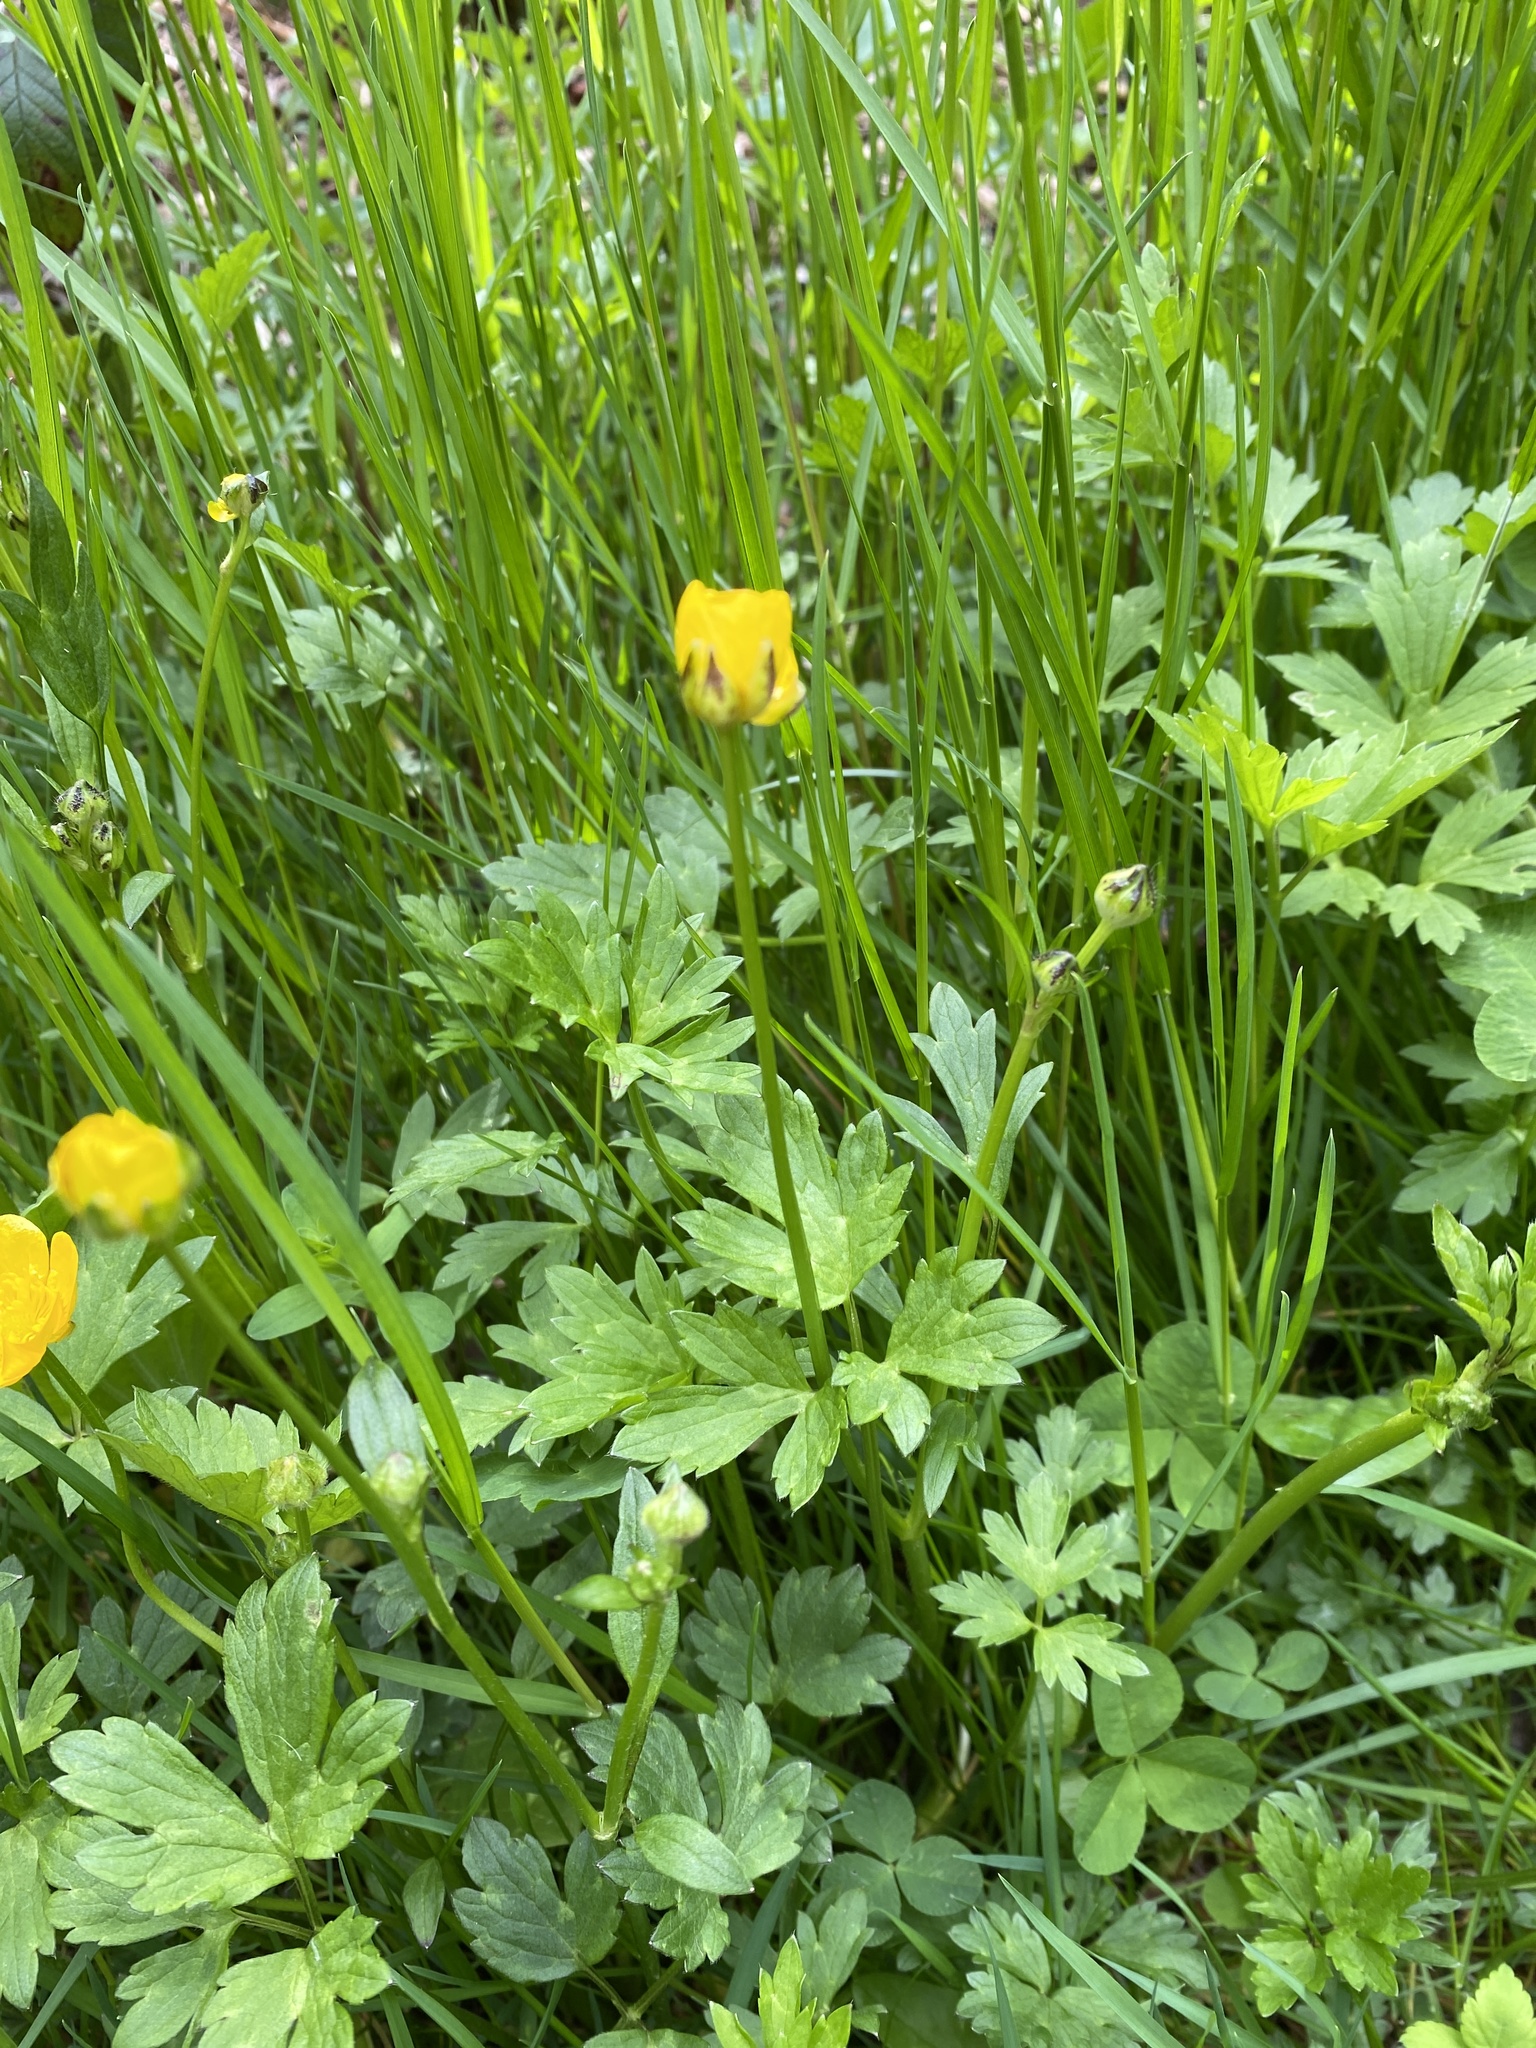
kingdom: Plantae
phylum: Tracheophyta
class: Magnoliopsida
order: Ranunculales
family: Ranunculaceae
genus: Ranunculus
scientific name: Ranunculus repens
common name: Creeping buttercup
